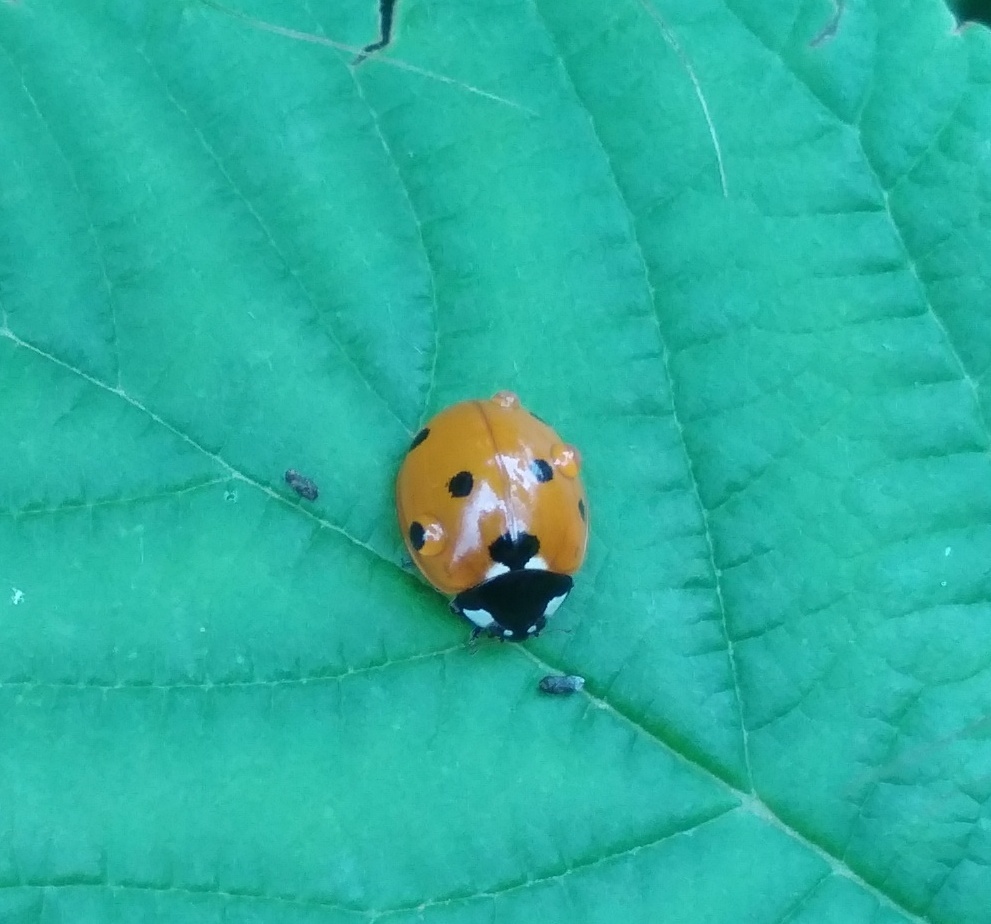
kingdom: Animalia
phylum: Arthropoda
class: Insecta
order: Coleoptera
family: Coccinellidae
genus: Coccinella
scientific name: Coccinella septempunctata
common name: Sevenspotted lady beetle
